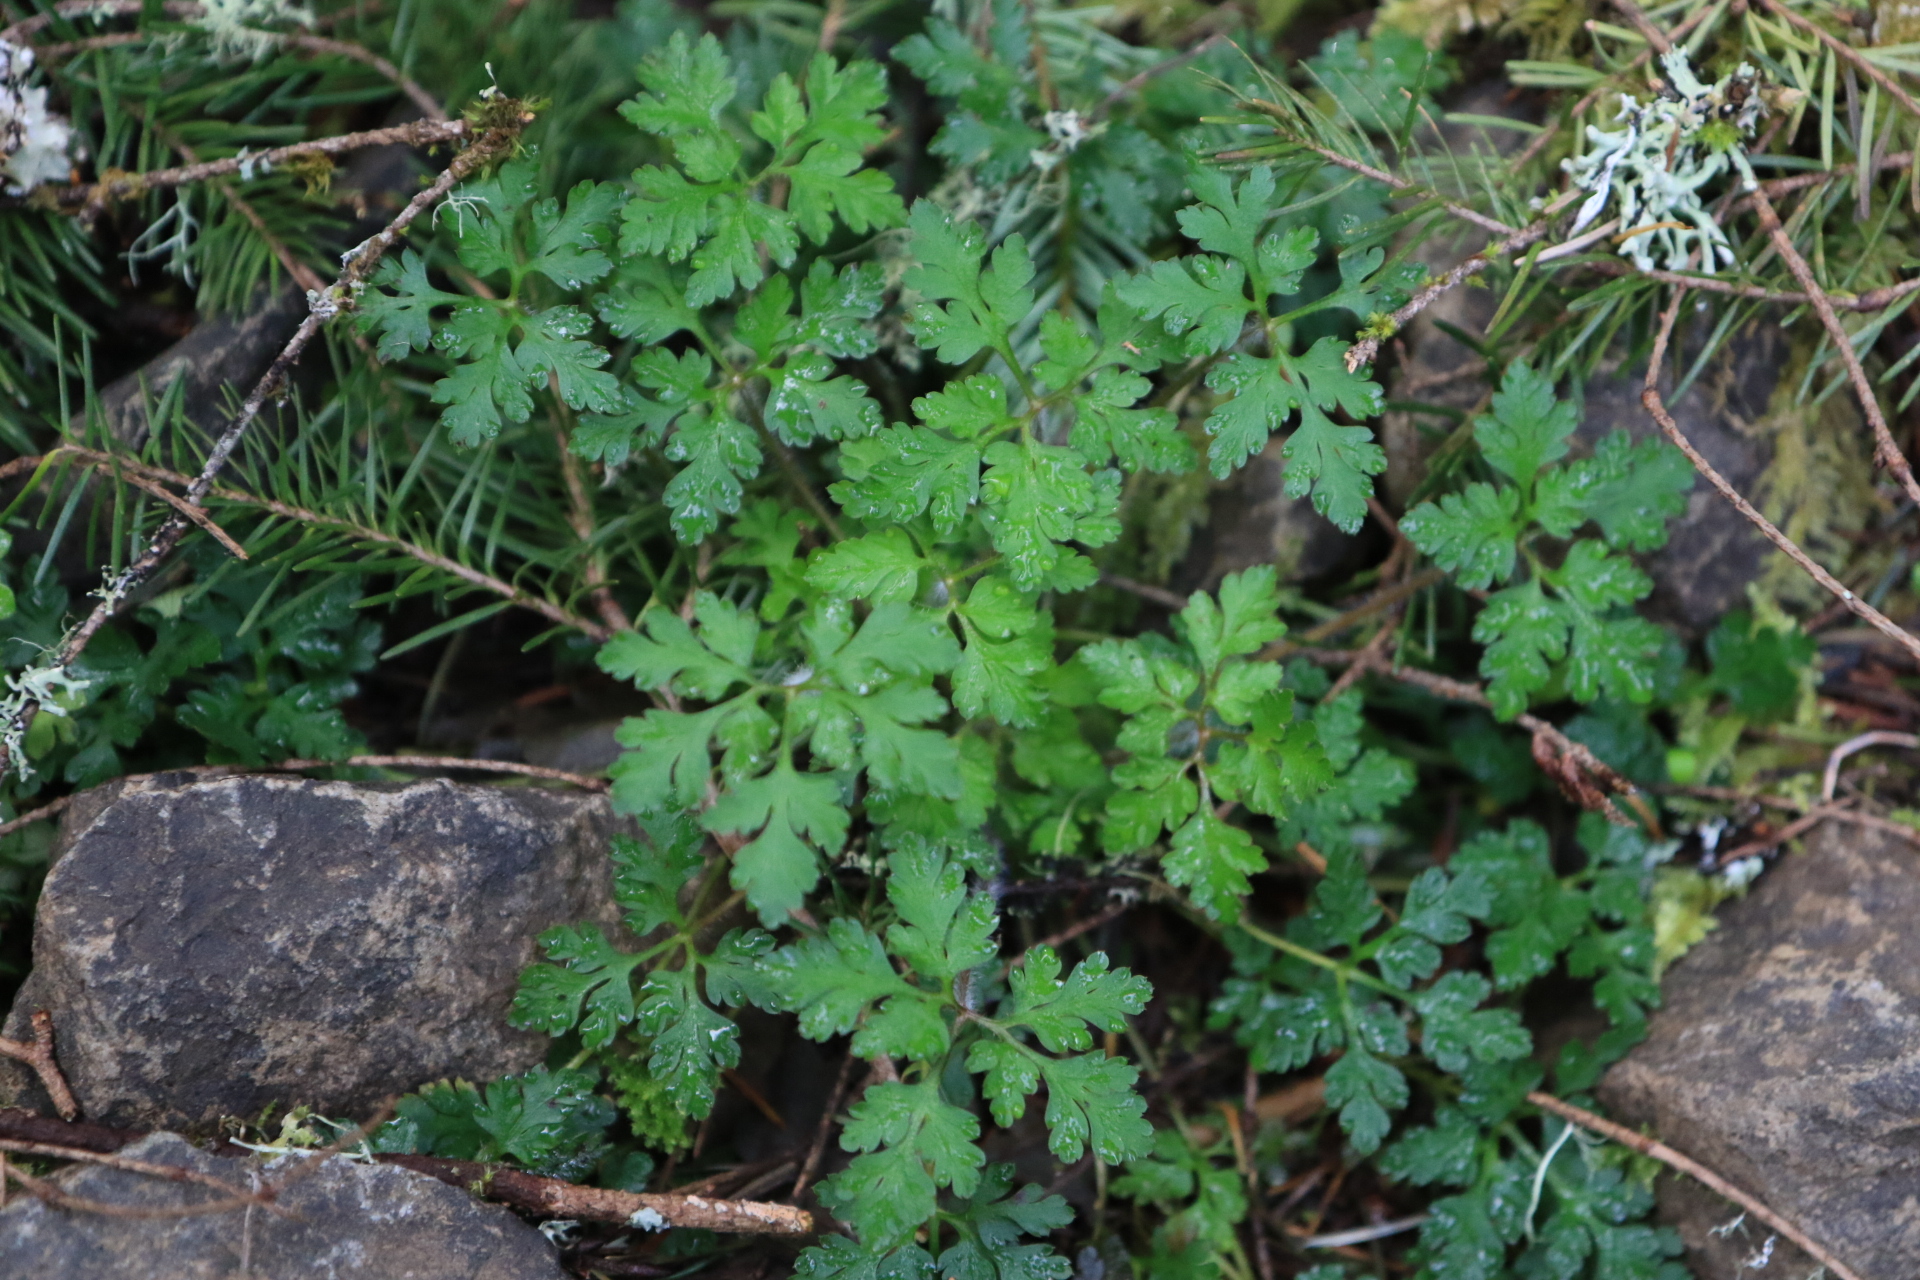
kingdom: Plantae
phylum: Tracheophyta
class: Magnoliopsida
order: Geraniales
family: Geraniaceae
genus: Geranium
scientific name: Geranium robertianum
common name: Herb-robert
